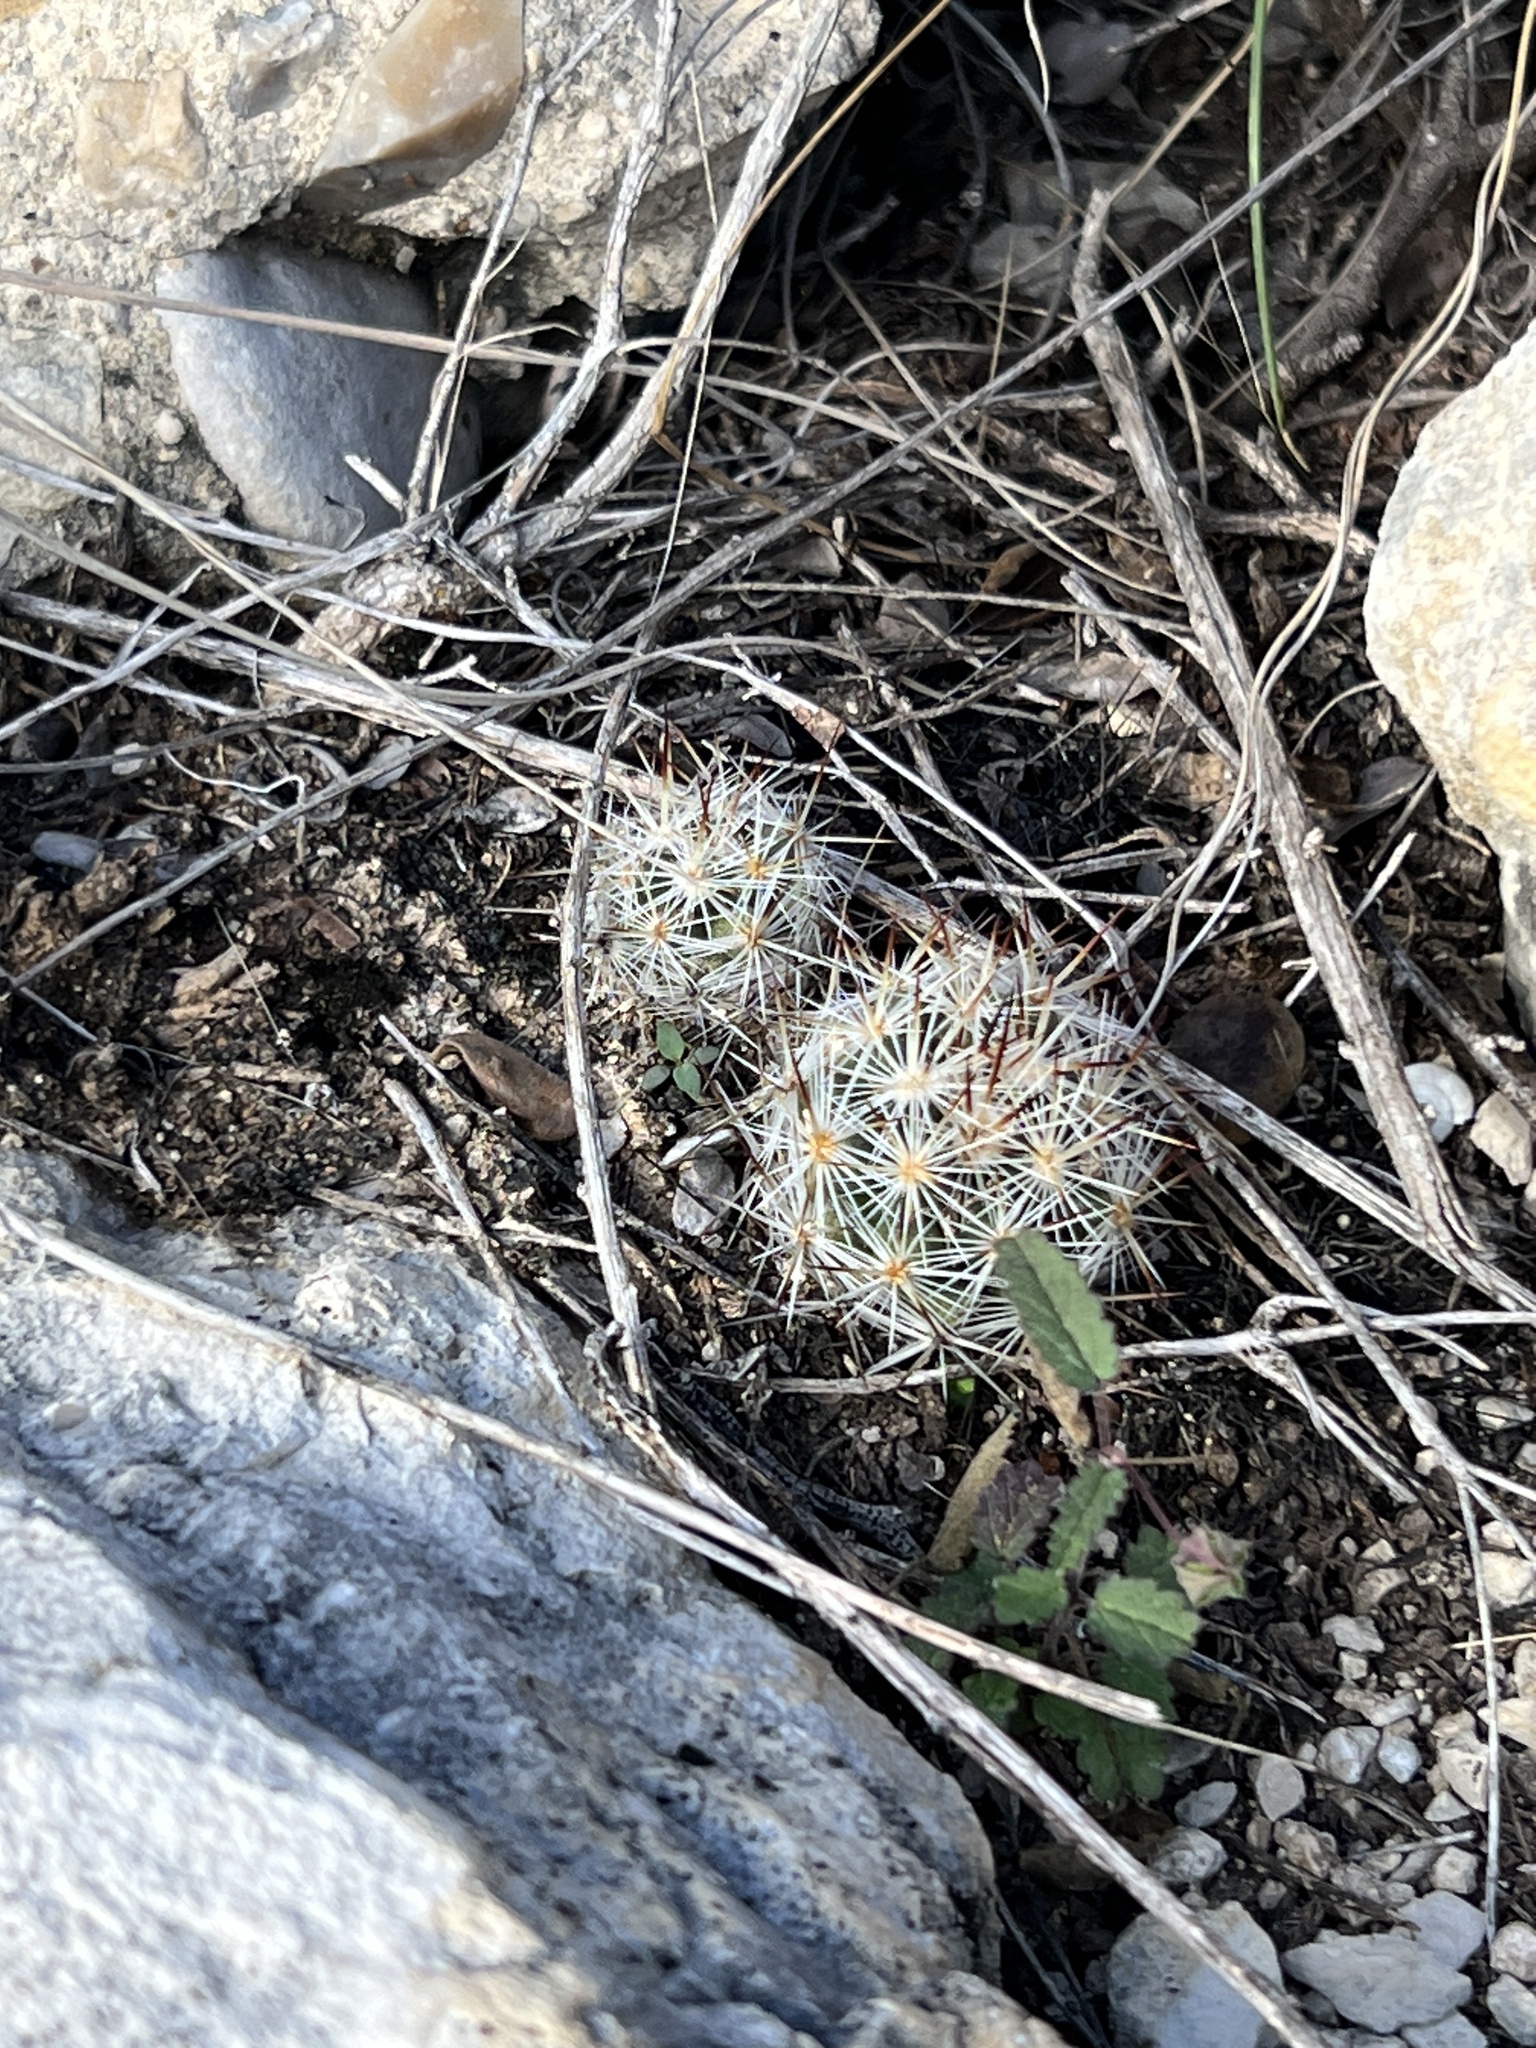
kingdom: Plantae
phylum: Tracheophyta
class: Magnoliopsida
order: Caryophyllales
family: Cactaceae
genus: Pelecyphora
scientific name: Pelecyphora emskoetteriana
